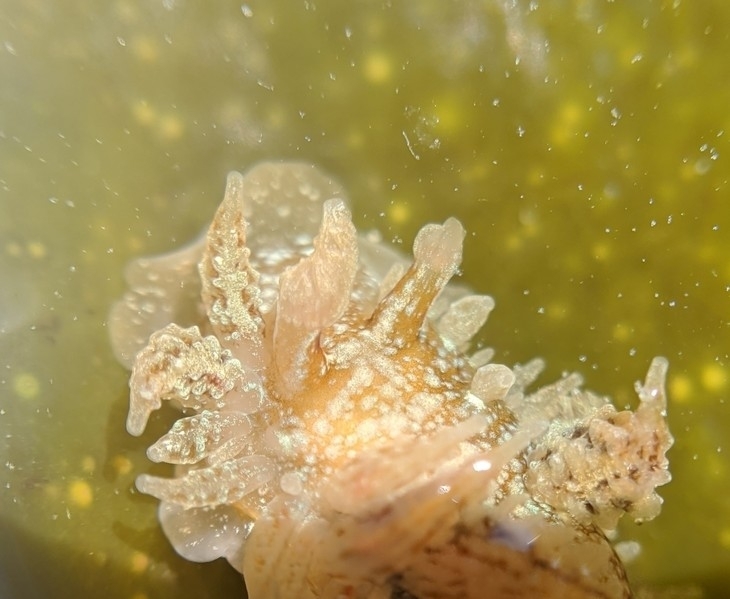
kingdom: Animalia
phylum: Mollusca
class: Gastropoda
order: Nudibranchia
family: Dironidae
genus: Dirona
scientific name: Dirona picta
